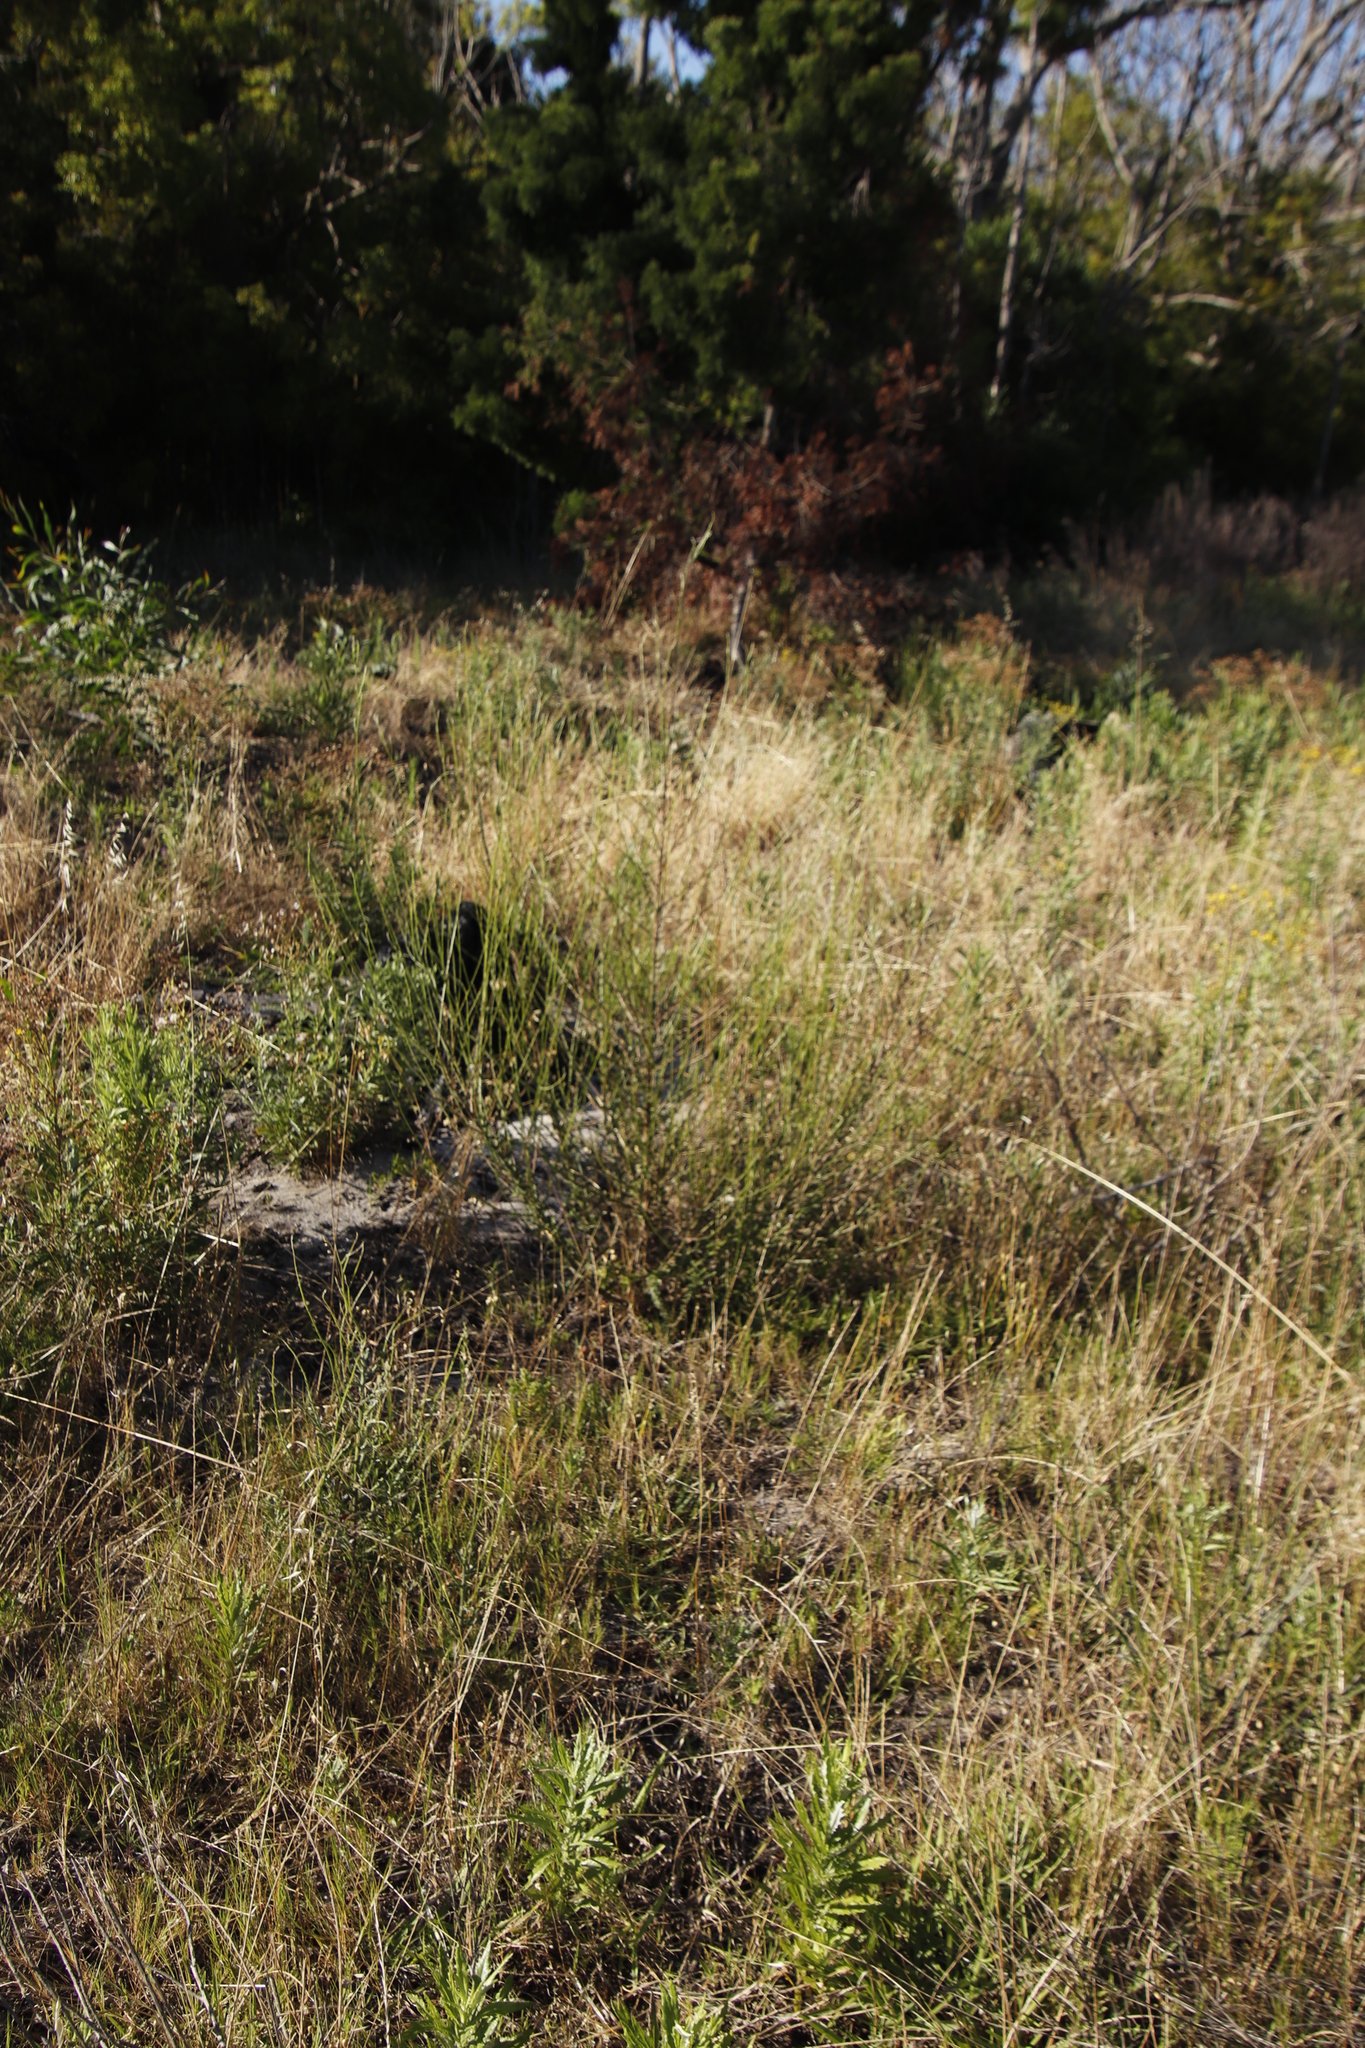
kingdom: Plantae
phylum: Tracheophyta
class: Magnoliopsida
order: Asterales
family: Asteraceae
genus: Senecio
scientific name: Senecio pubigerus
